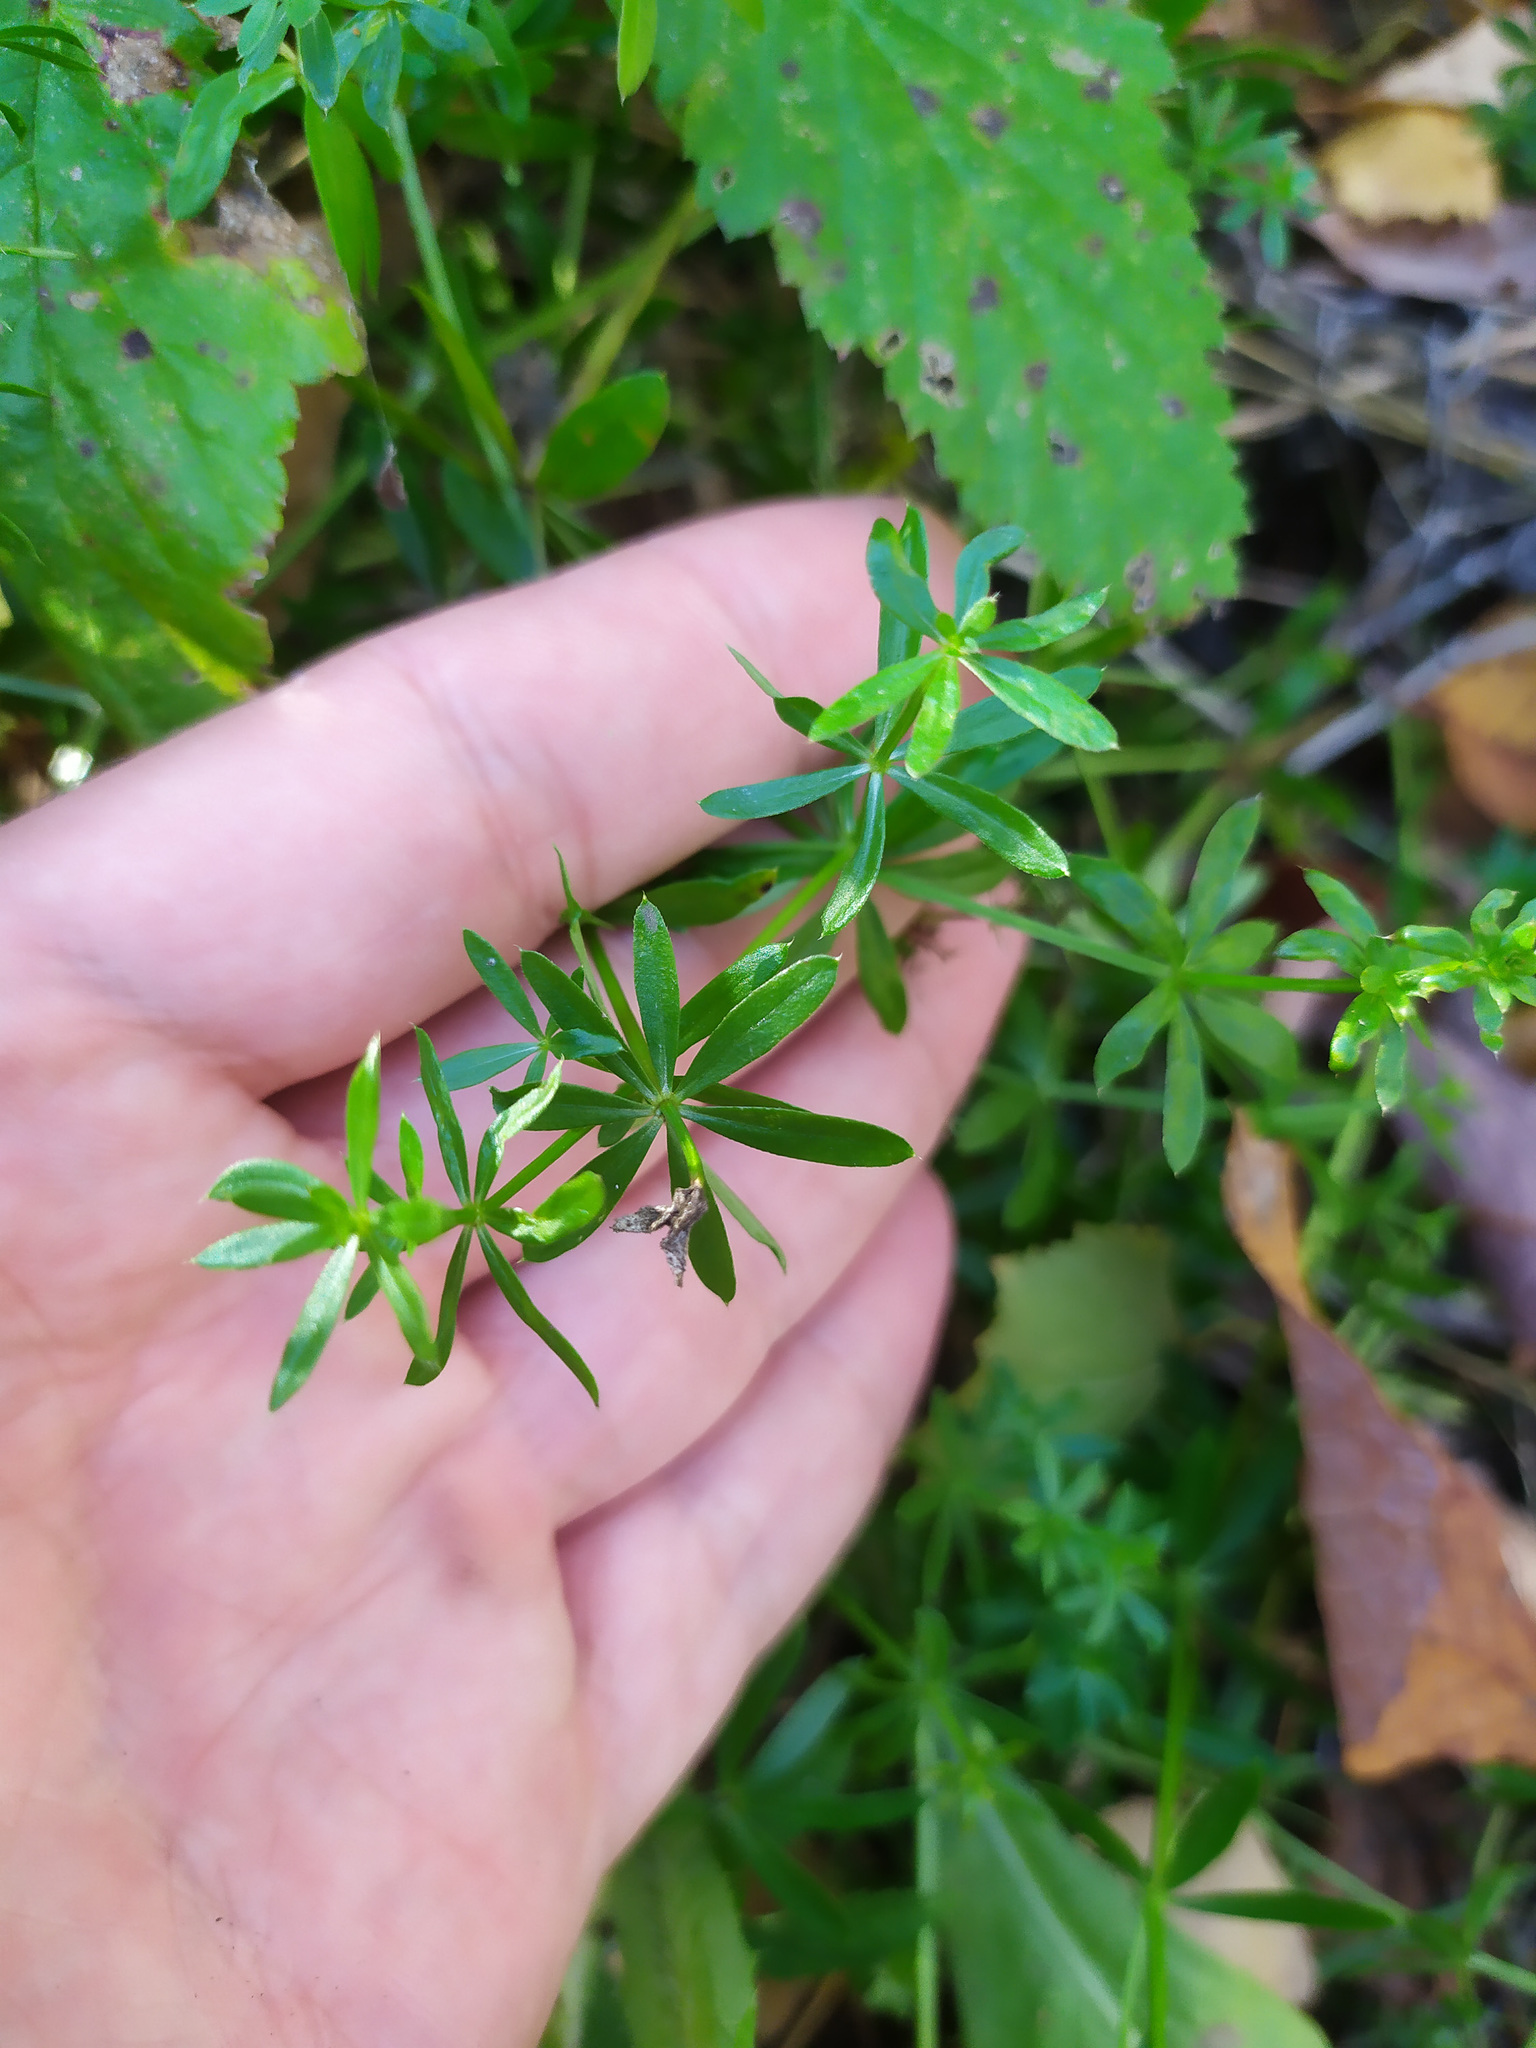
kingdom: Plantae
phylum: Tracheophyta
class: Magnoliopsida
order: Gentianales
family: Rubiaceae
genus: Galium
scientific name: Galium mollugo
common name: Hedge bedstraw
